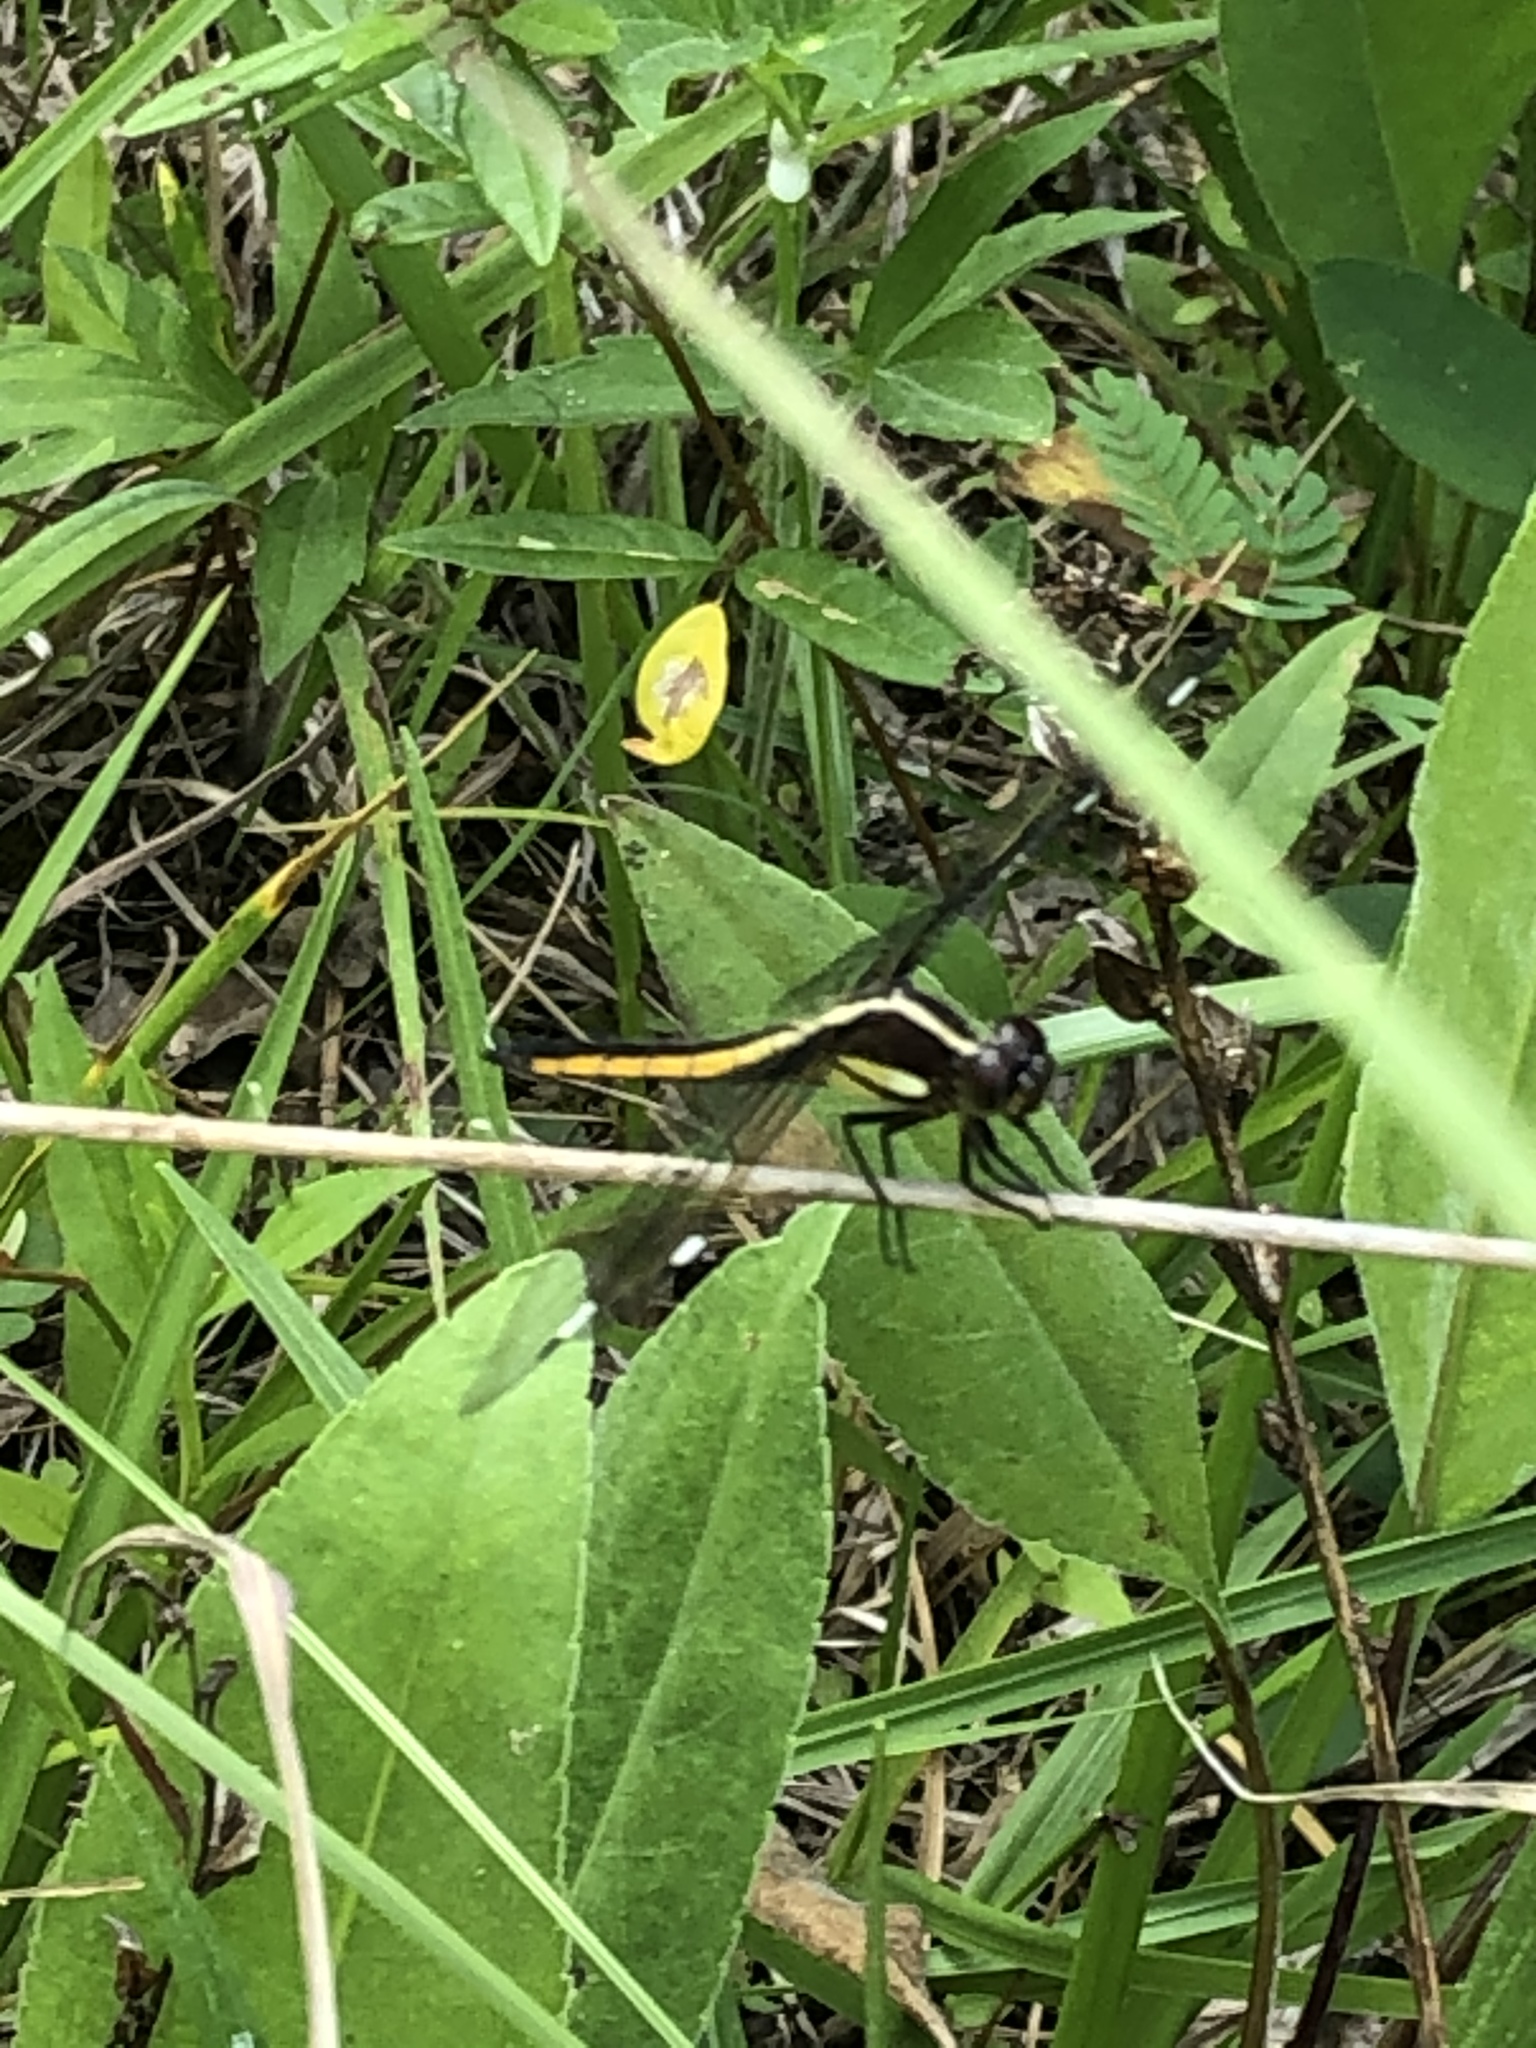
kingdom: Animalia
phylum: Arthropoda
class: Insecta
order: Odonata
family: Libellulidae
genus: Libellula
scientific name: Libellula cyanea
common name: Spangled skimmer
